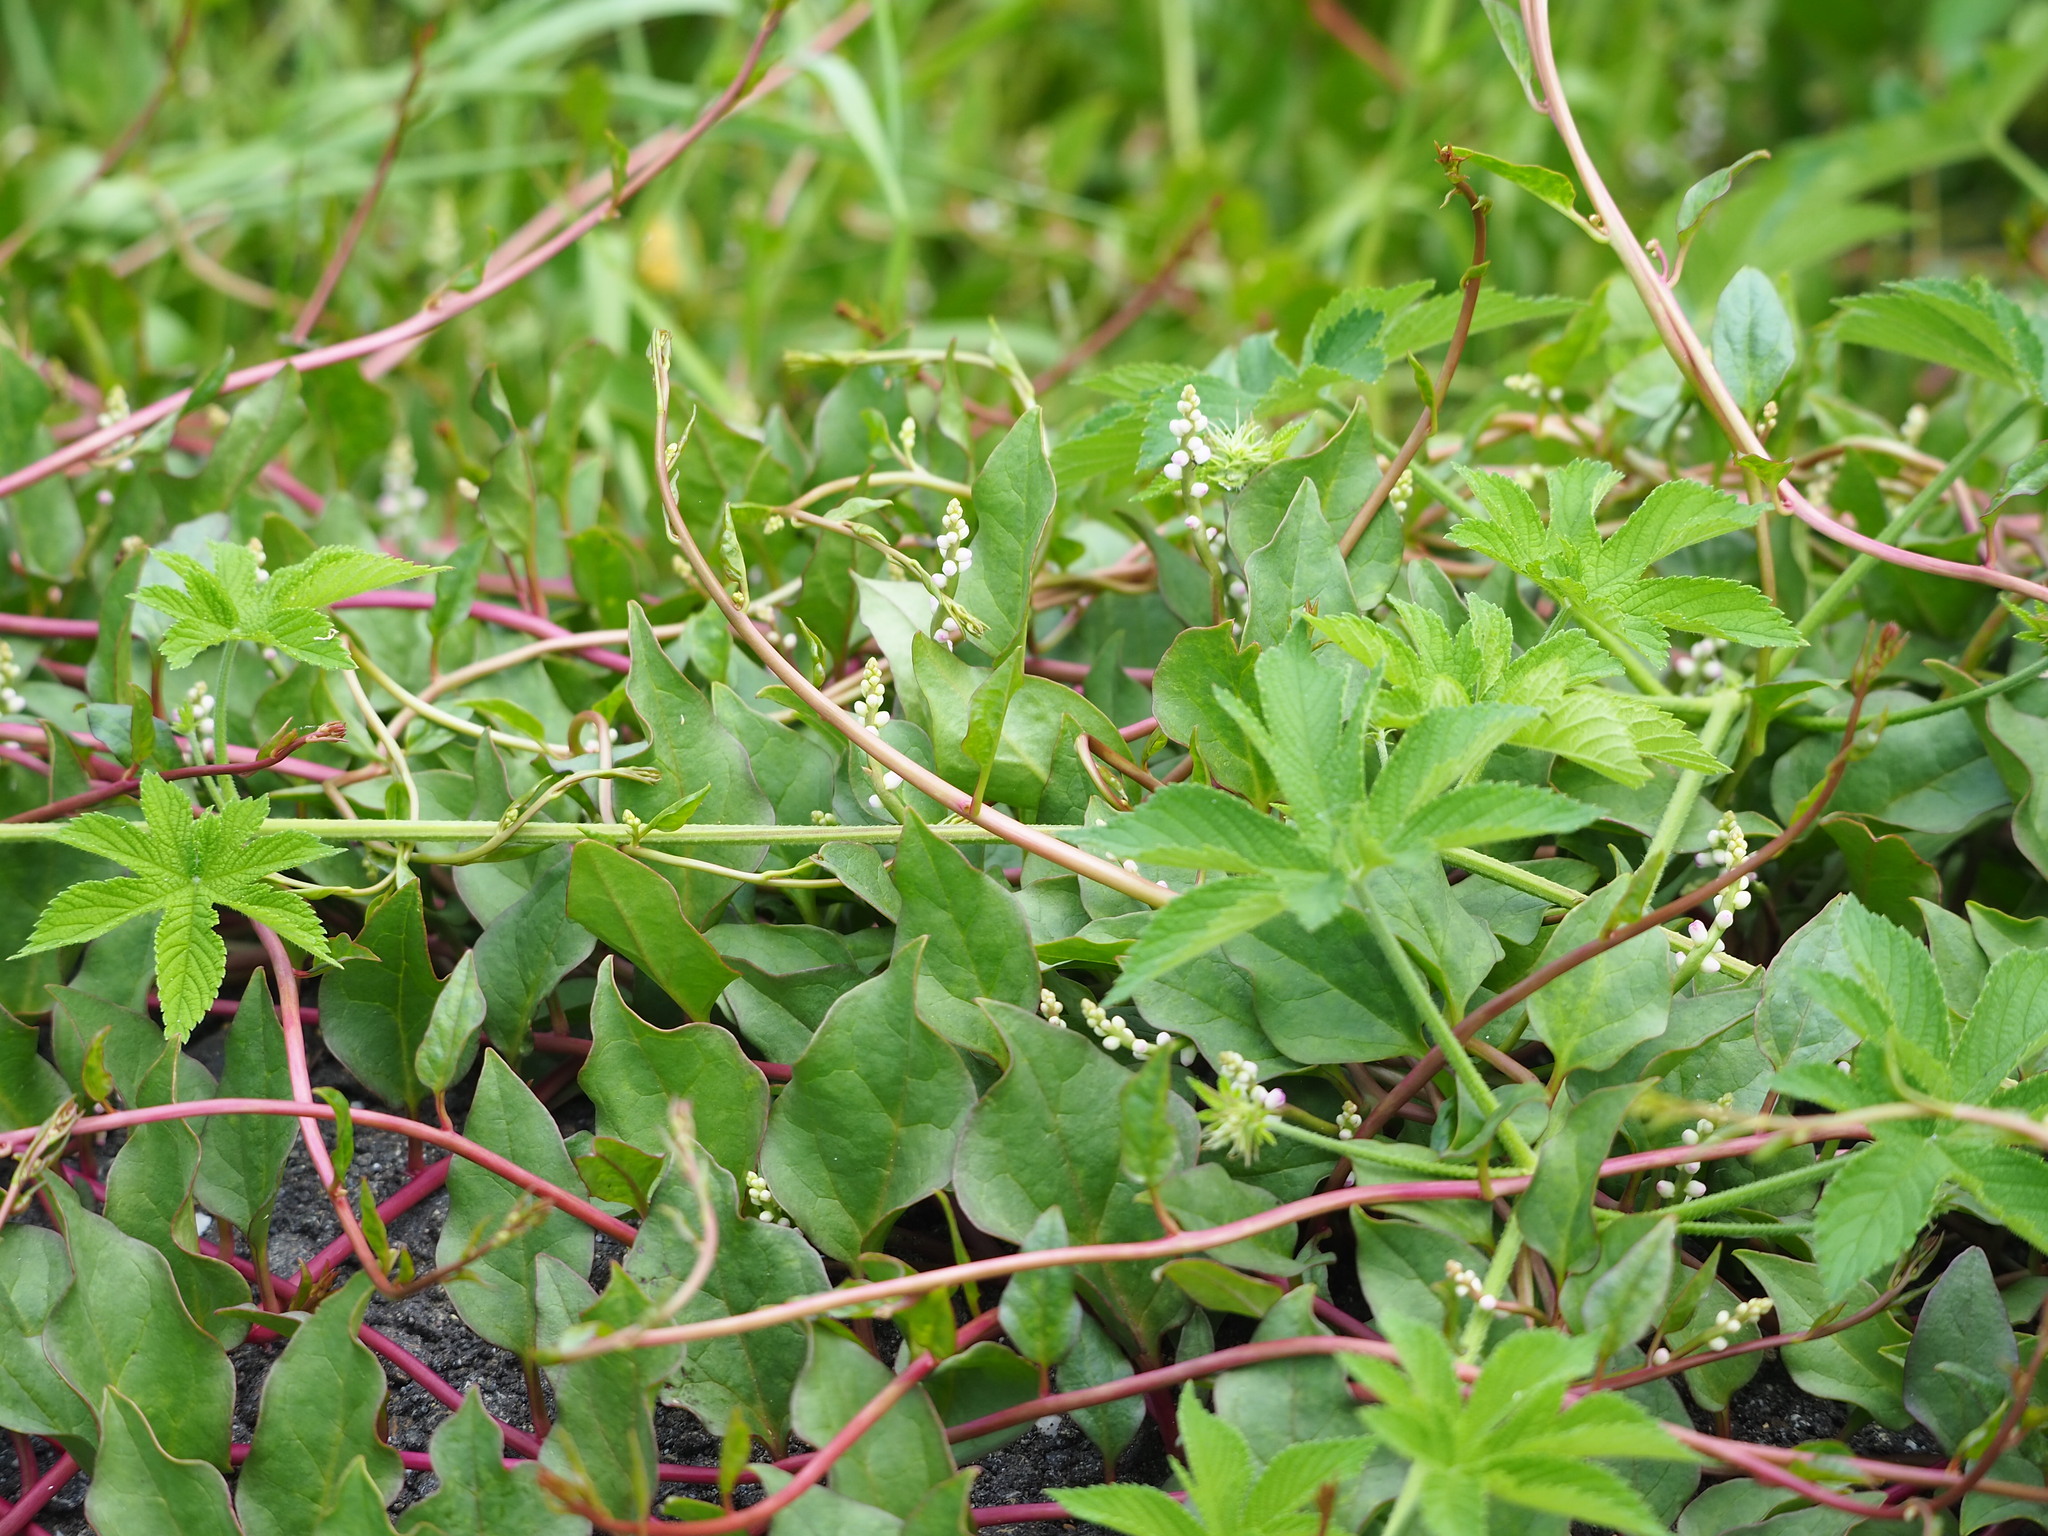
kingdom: Plantae
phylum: Tracheophyta
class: Magnoliopsida
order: Caryophyllales
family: Basellaceae
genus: Basella
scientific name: Basella alba
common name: Indian spinach
